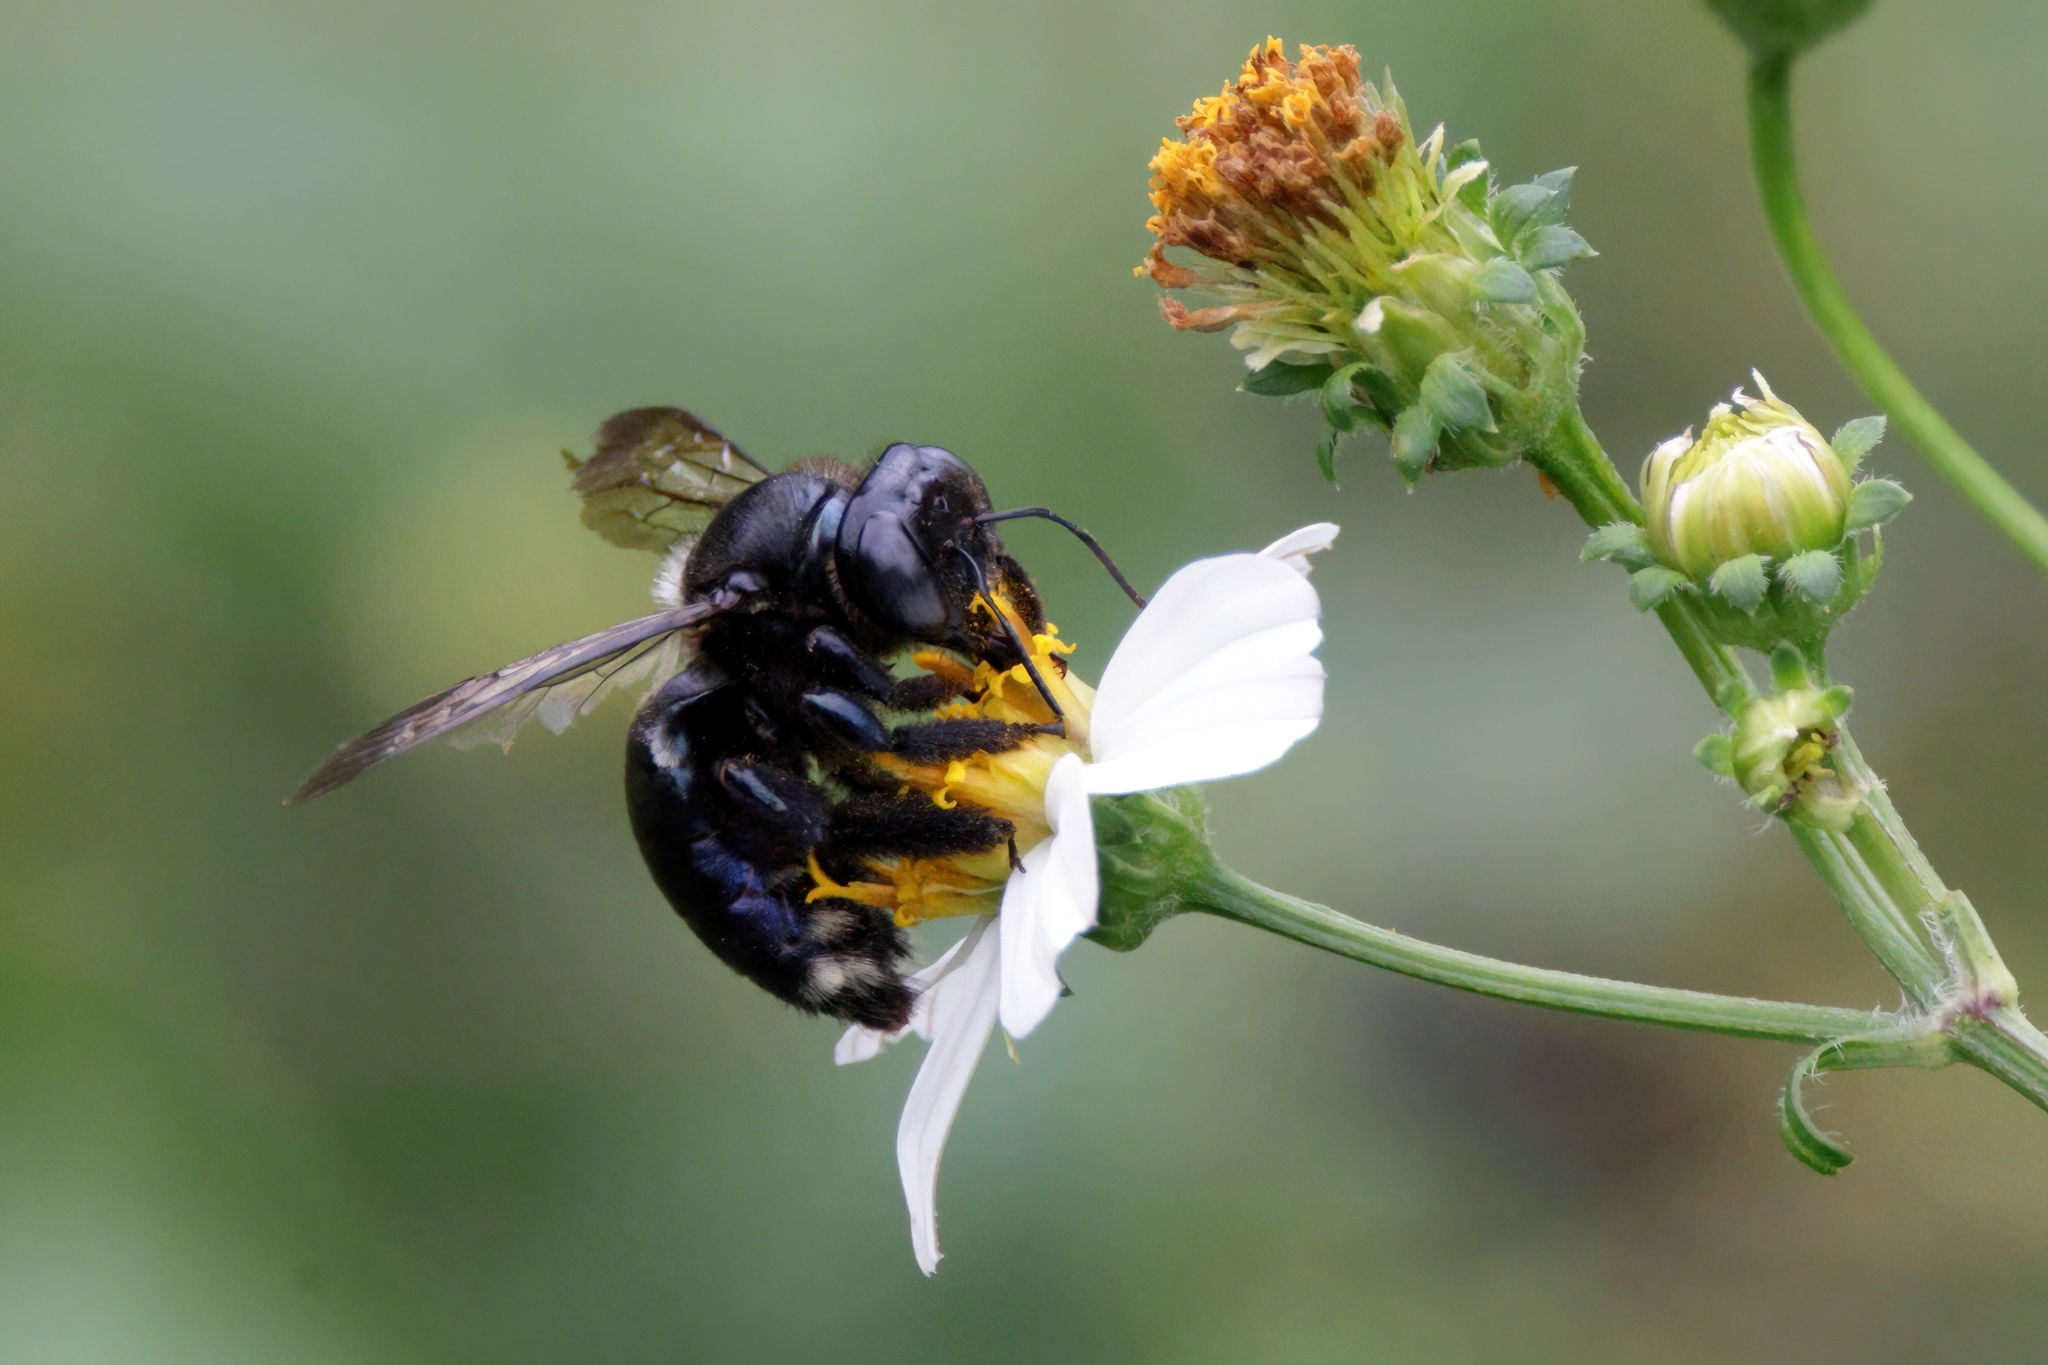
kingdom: Animalia
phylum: Arthropoda
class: Insecta
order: Hymenoptera
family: Apidae
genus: Xylocopa
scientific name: Xylocopa micans
